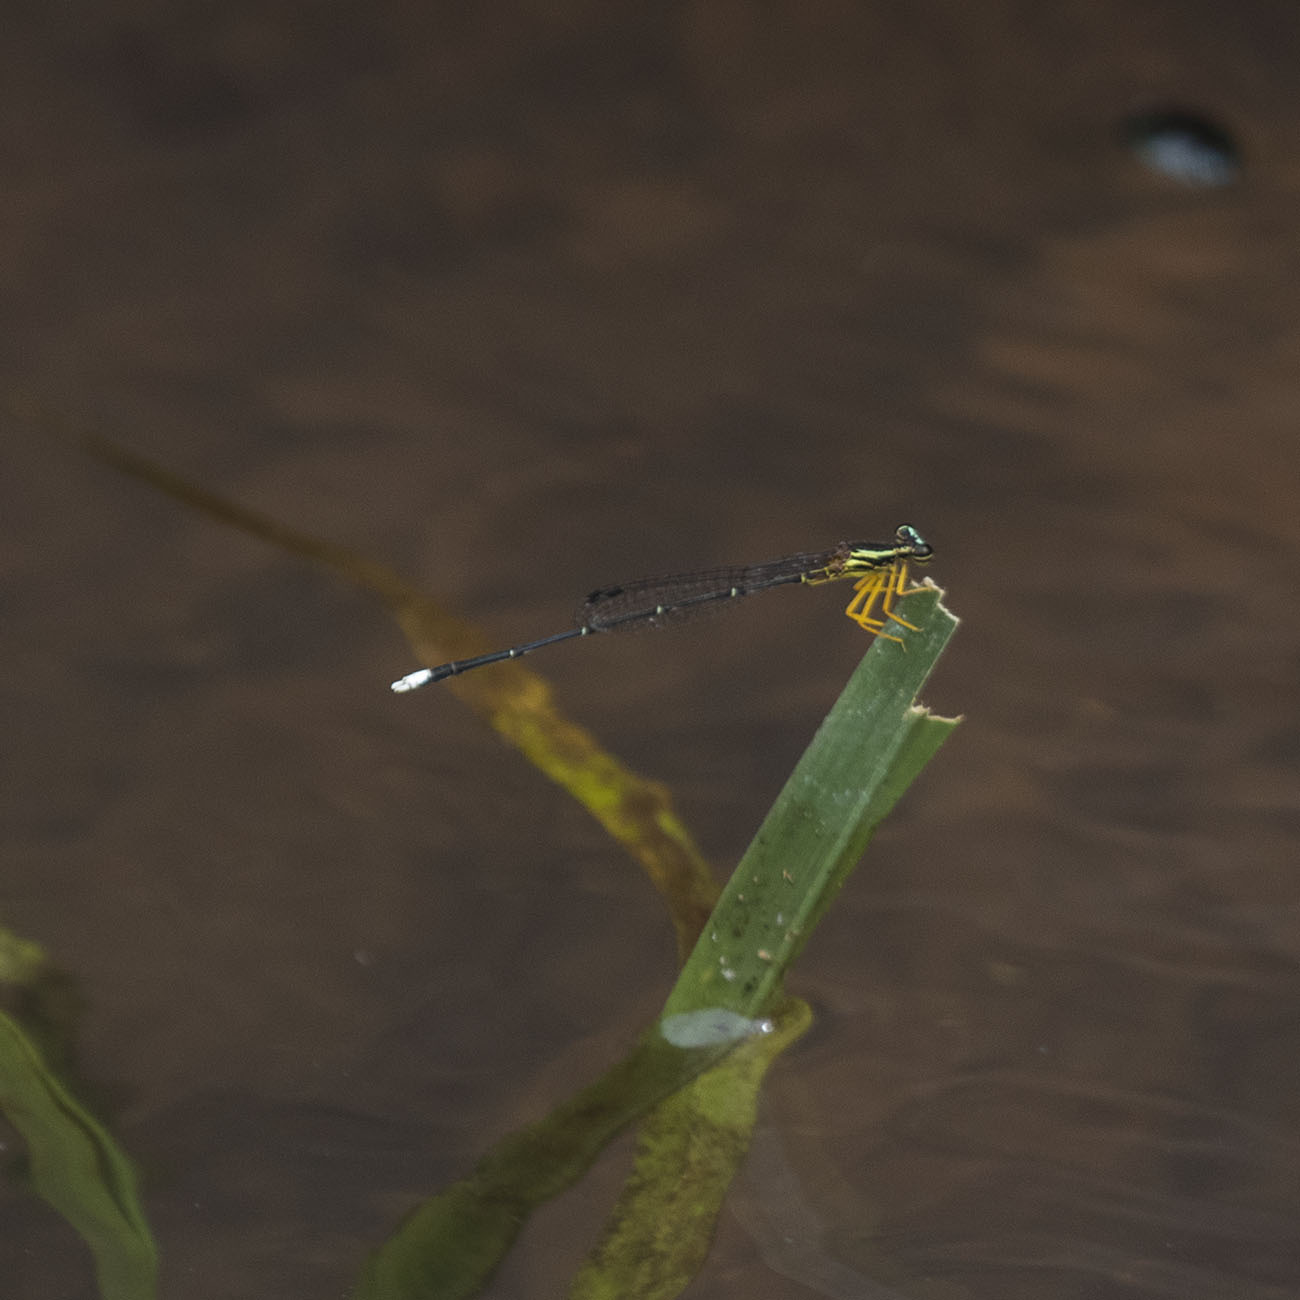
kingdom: Animalia
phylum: Arthropoda
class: Insecta
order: Odonata
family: Platycnemididae
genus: Copera
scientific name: Copera marginipes
